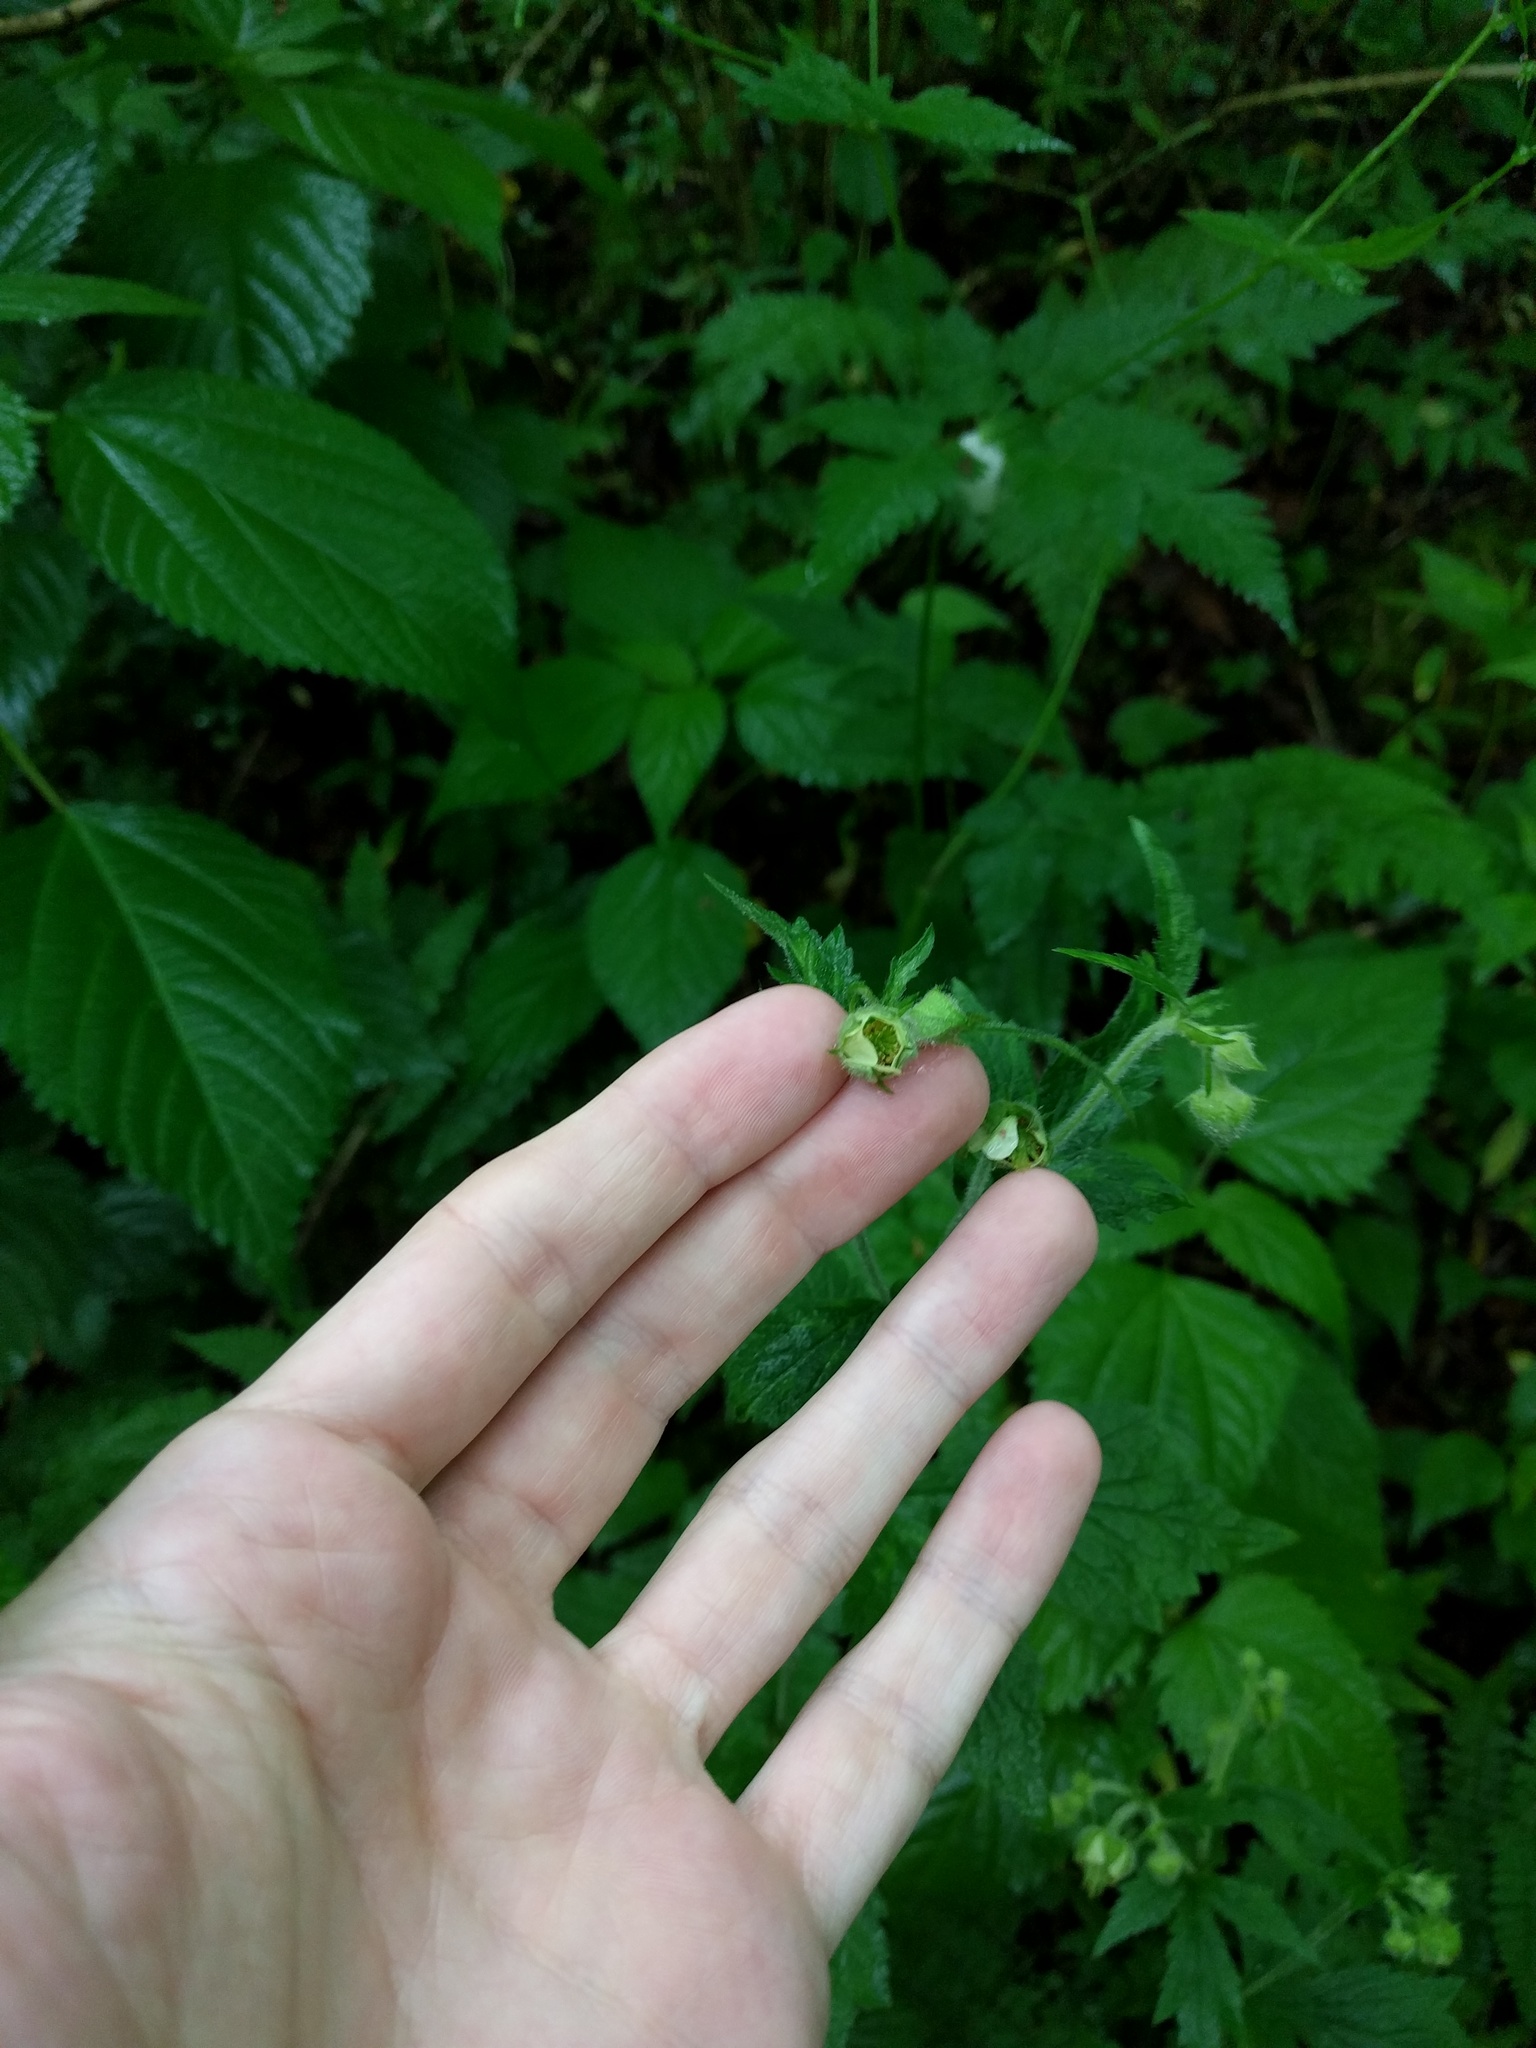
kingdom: Plantae
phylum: Tracheophyta
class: Magnoliopsida
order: Rosales
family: Rosaceae
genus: Geum
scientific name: Geum geniculatum
